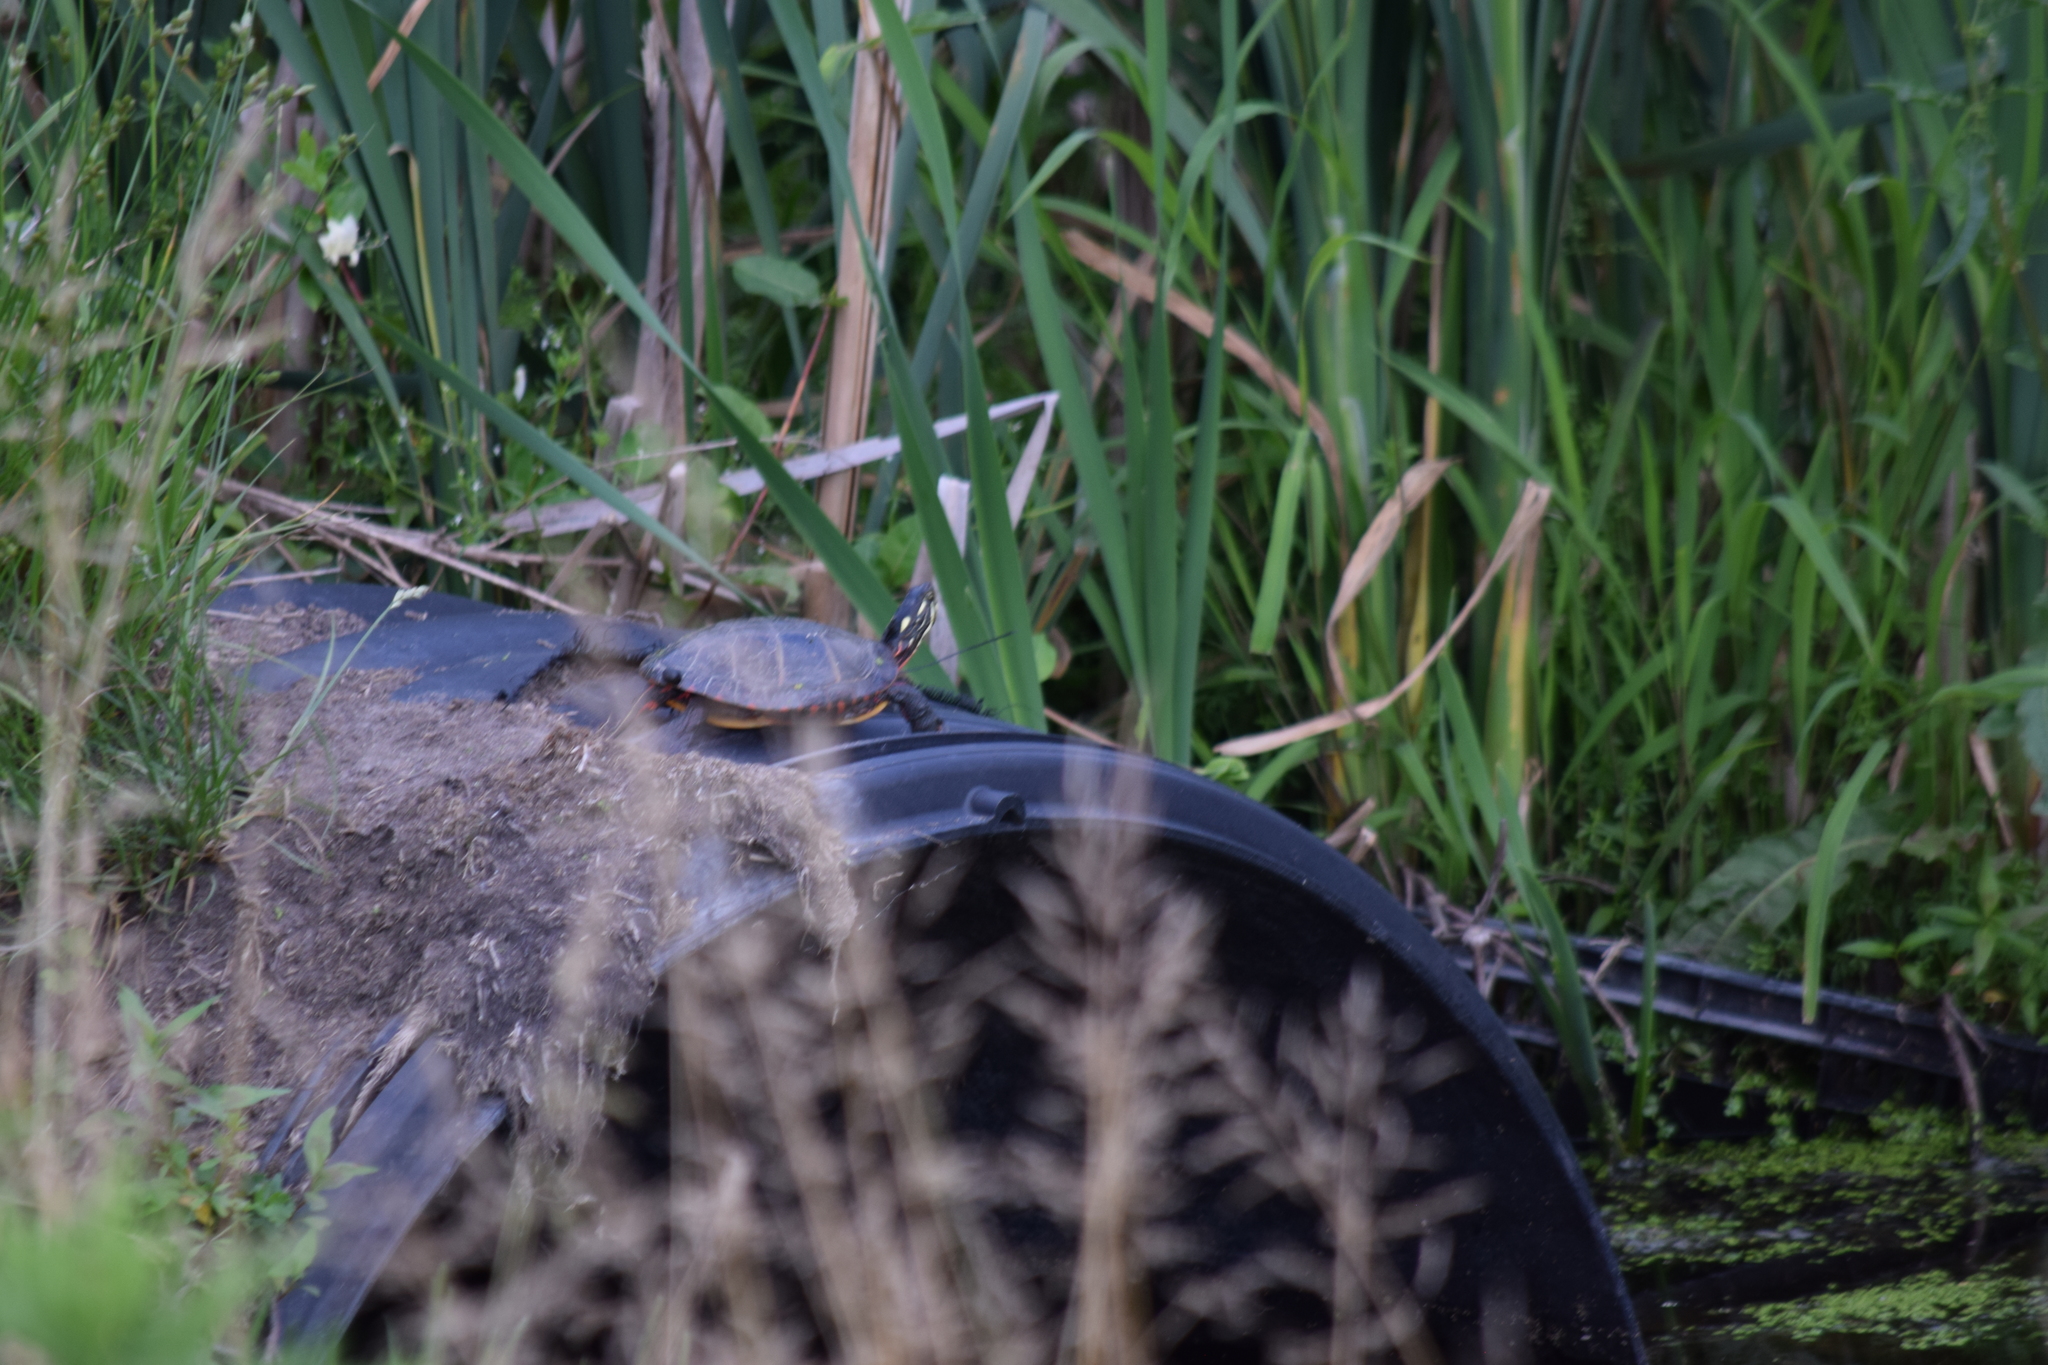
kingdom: Animalia
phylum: Chordata
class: Testudines
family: Emydidae
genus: Chrysemys
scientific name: Chrysemys picta
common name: Painted turtle
